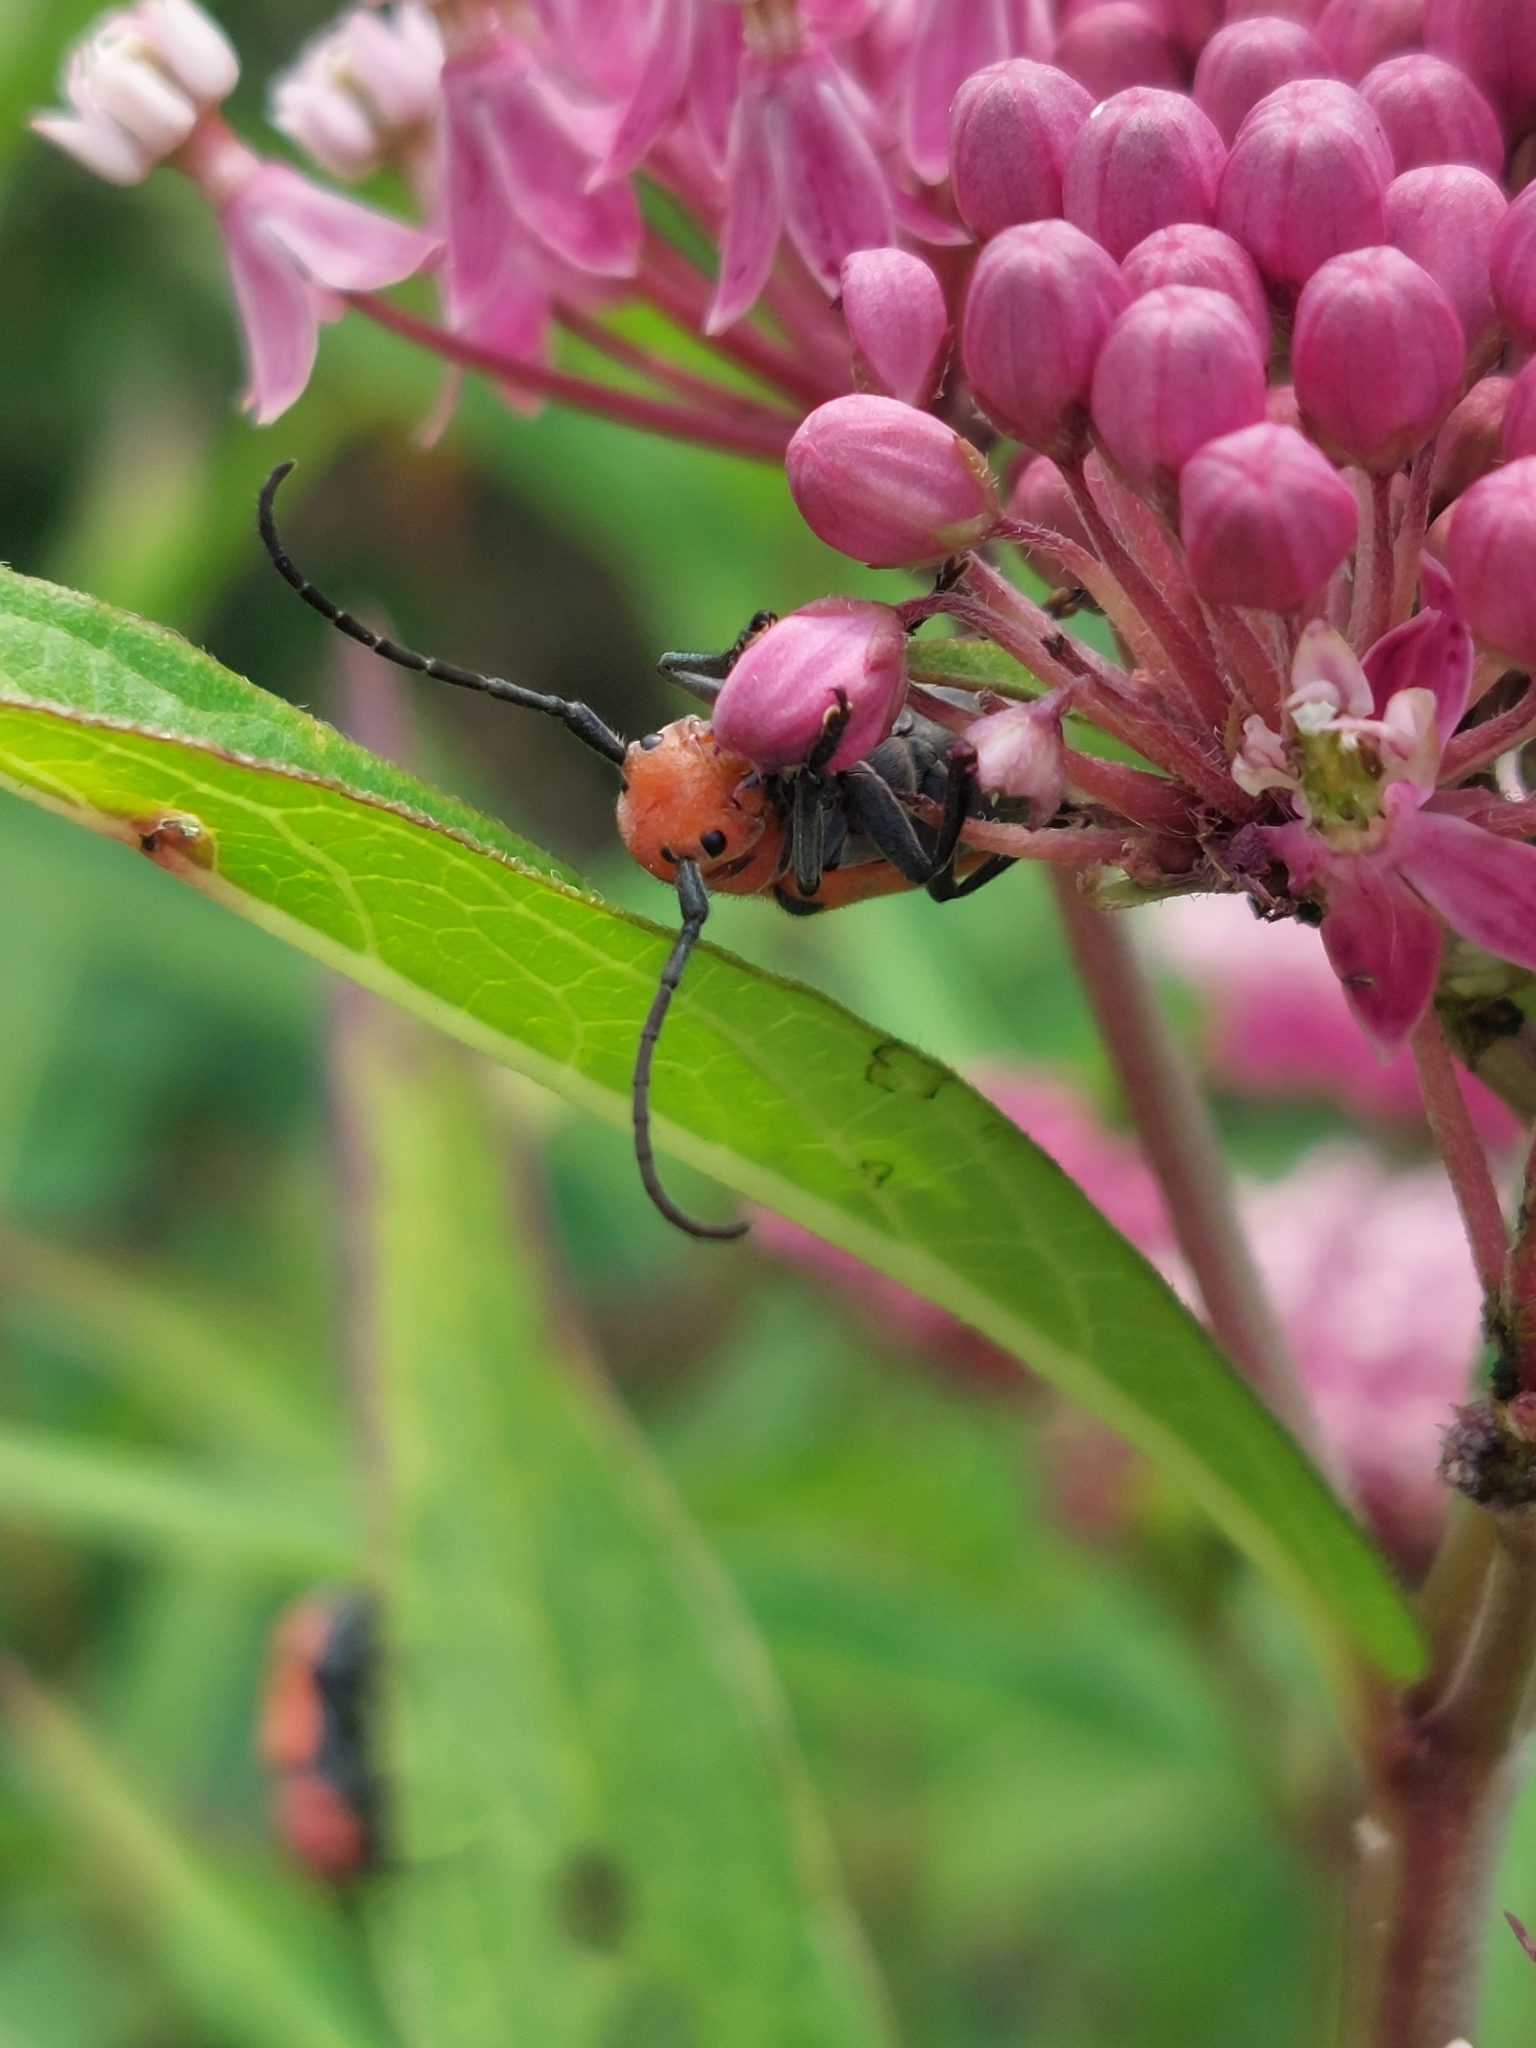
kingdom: Animalia
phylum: Arthropoda
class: Insecta
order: Coleoptera
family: Cerambycidae
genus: Tetraopes
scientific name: Tetraopes tetrophthalmus
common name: Red milkweed beetle
